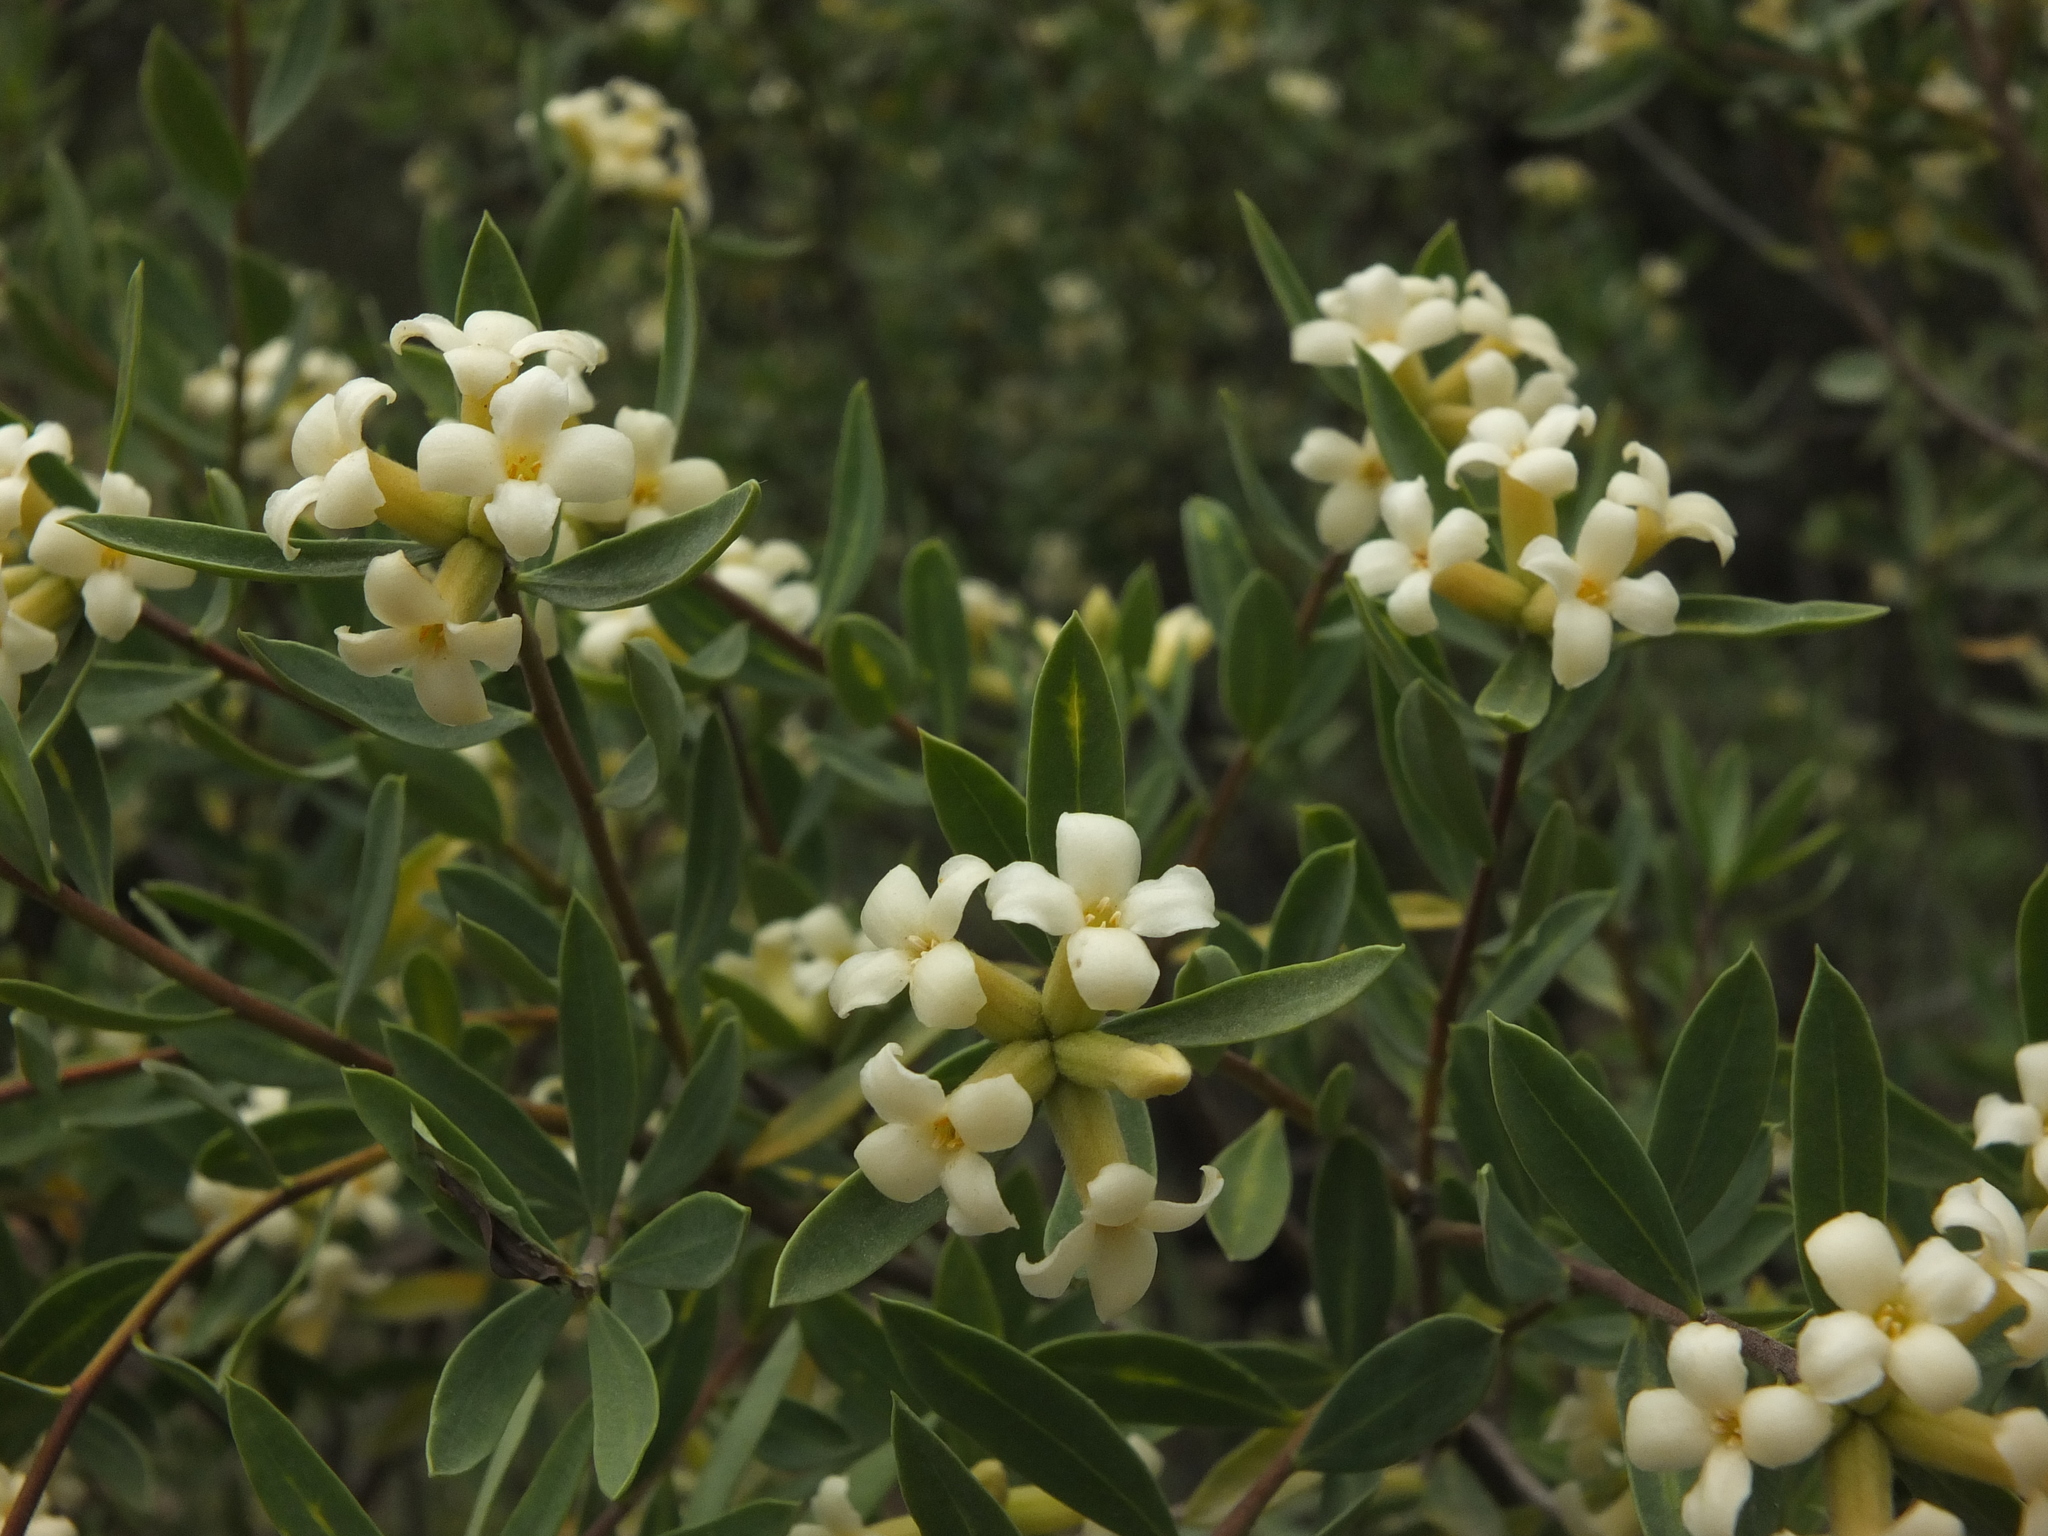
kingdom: Plantae
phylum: Tracheophyta
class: Magnoliopsida
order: Malvales
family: Thymelaeaceae
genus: Daphne
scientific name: Daphne mucronata
